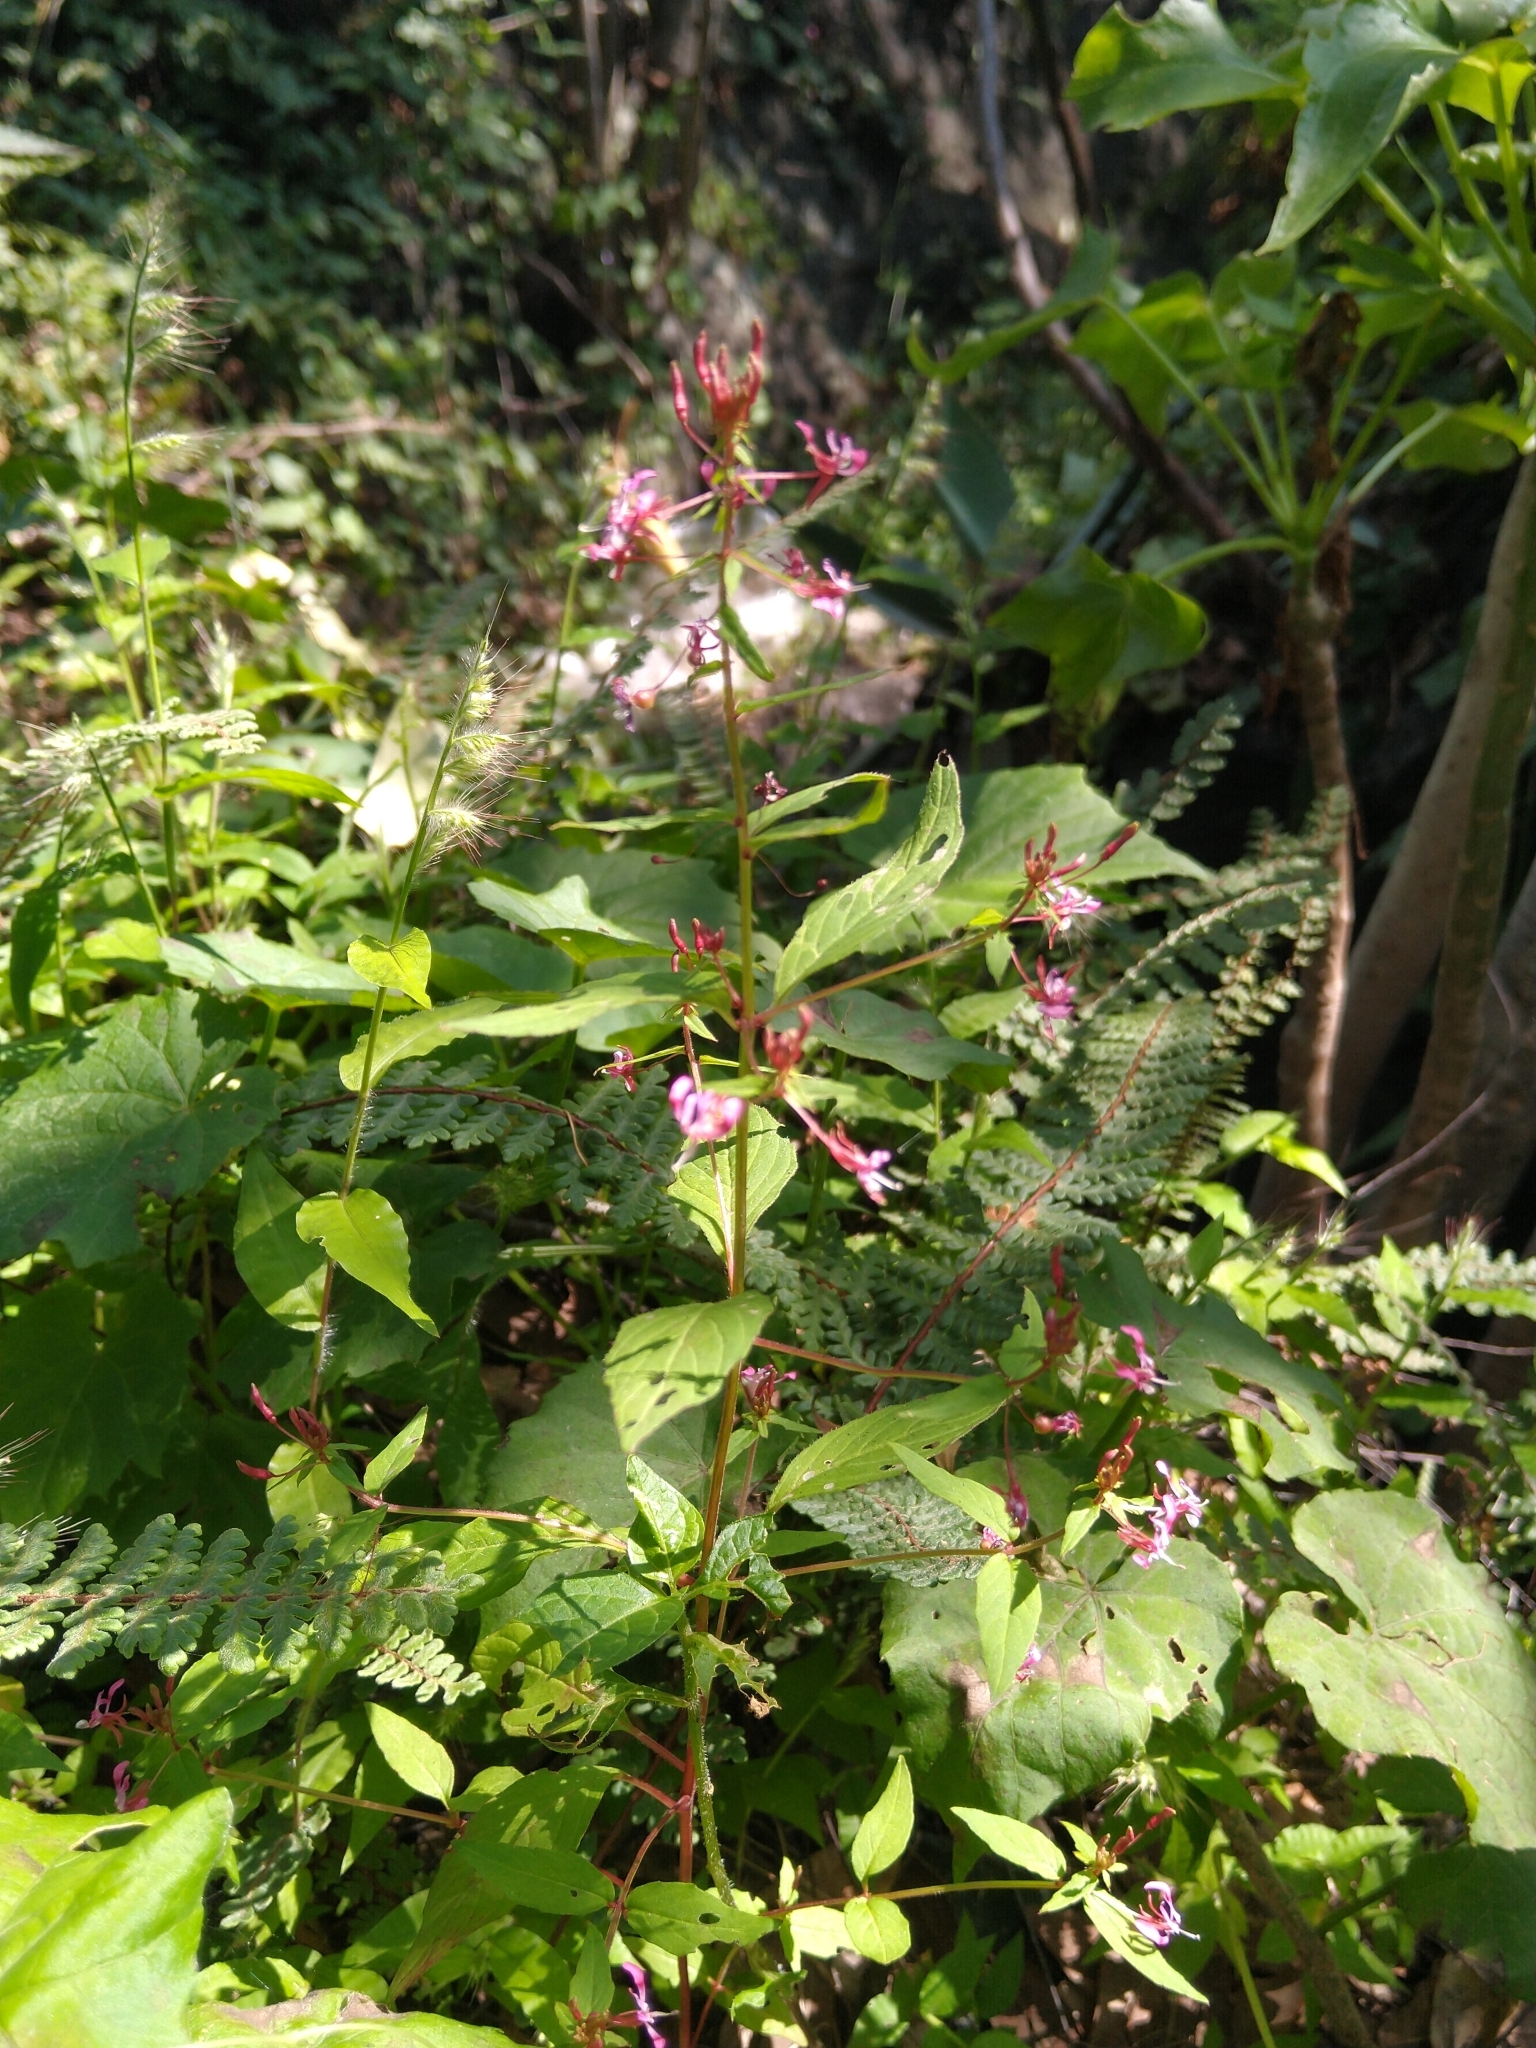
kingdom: Plantae
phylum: Tracheophyta
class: Magnoliopsida
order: Myrtales
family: Onagraceae
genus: Lopezia
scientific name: Lopezia racemosa
